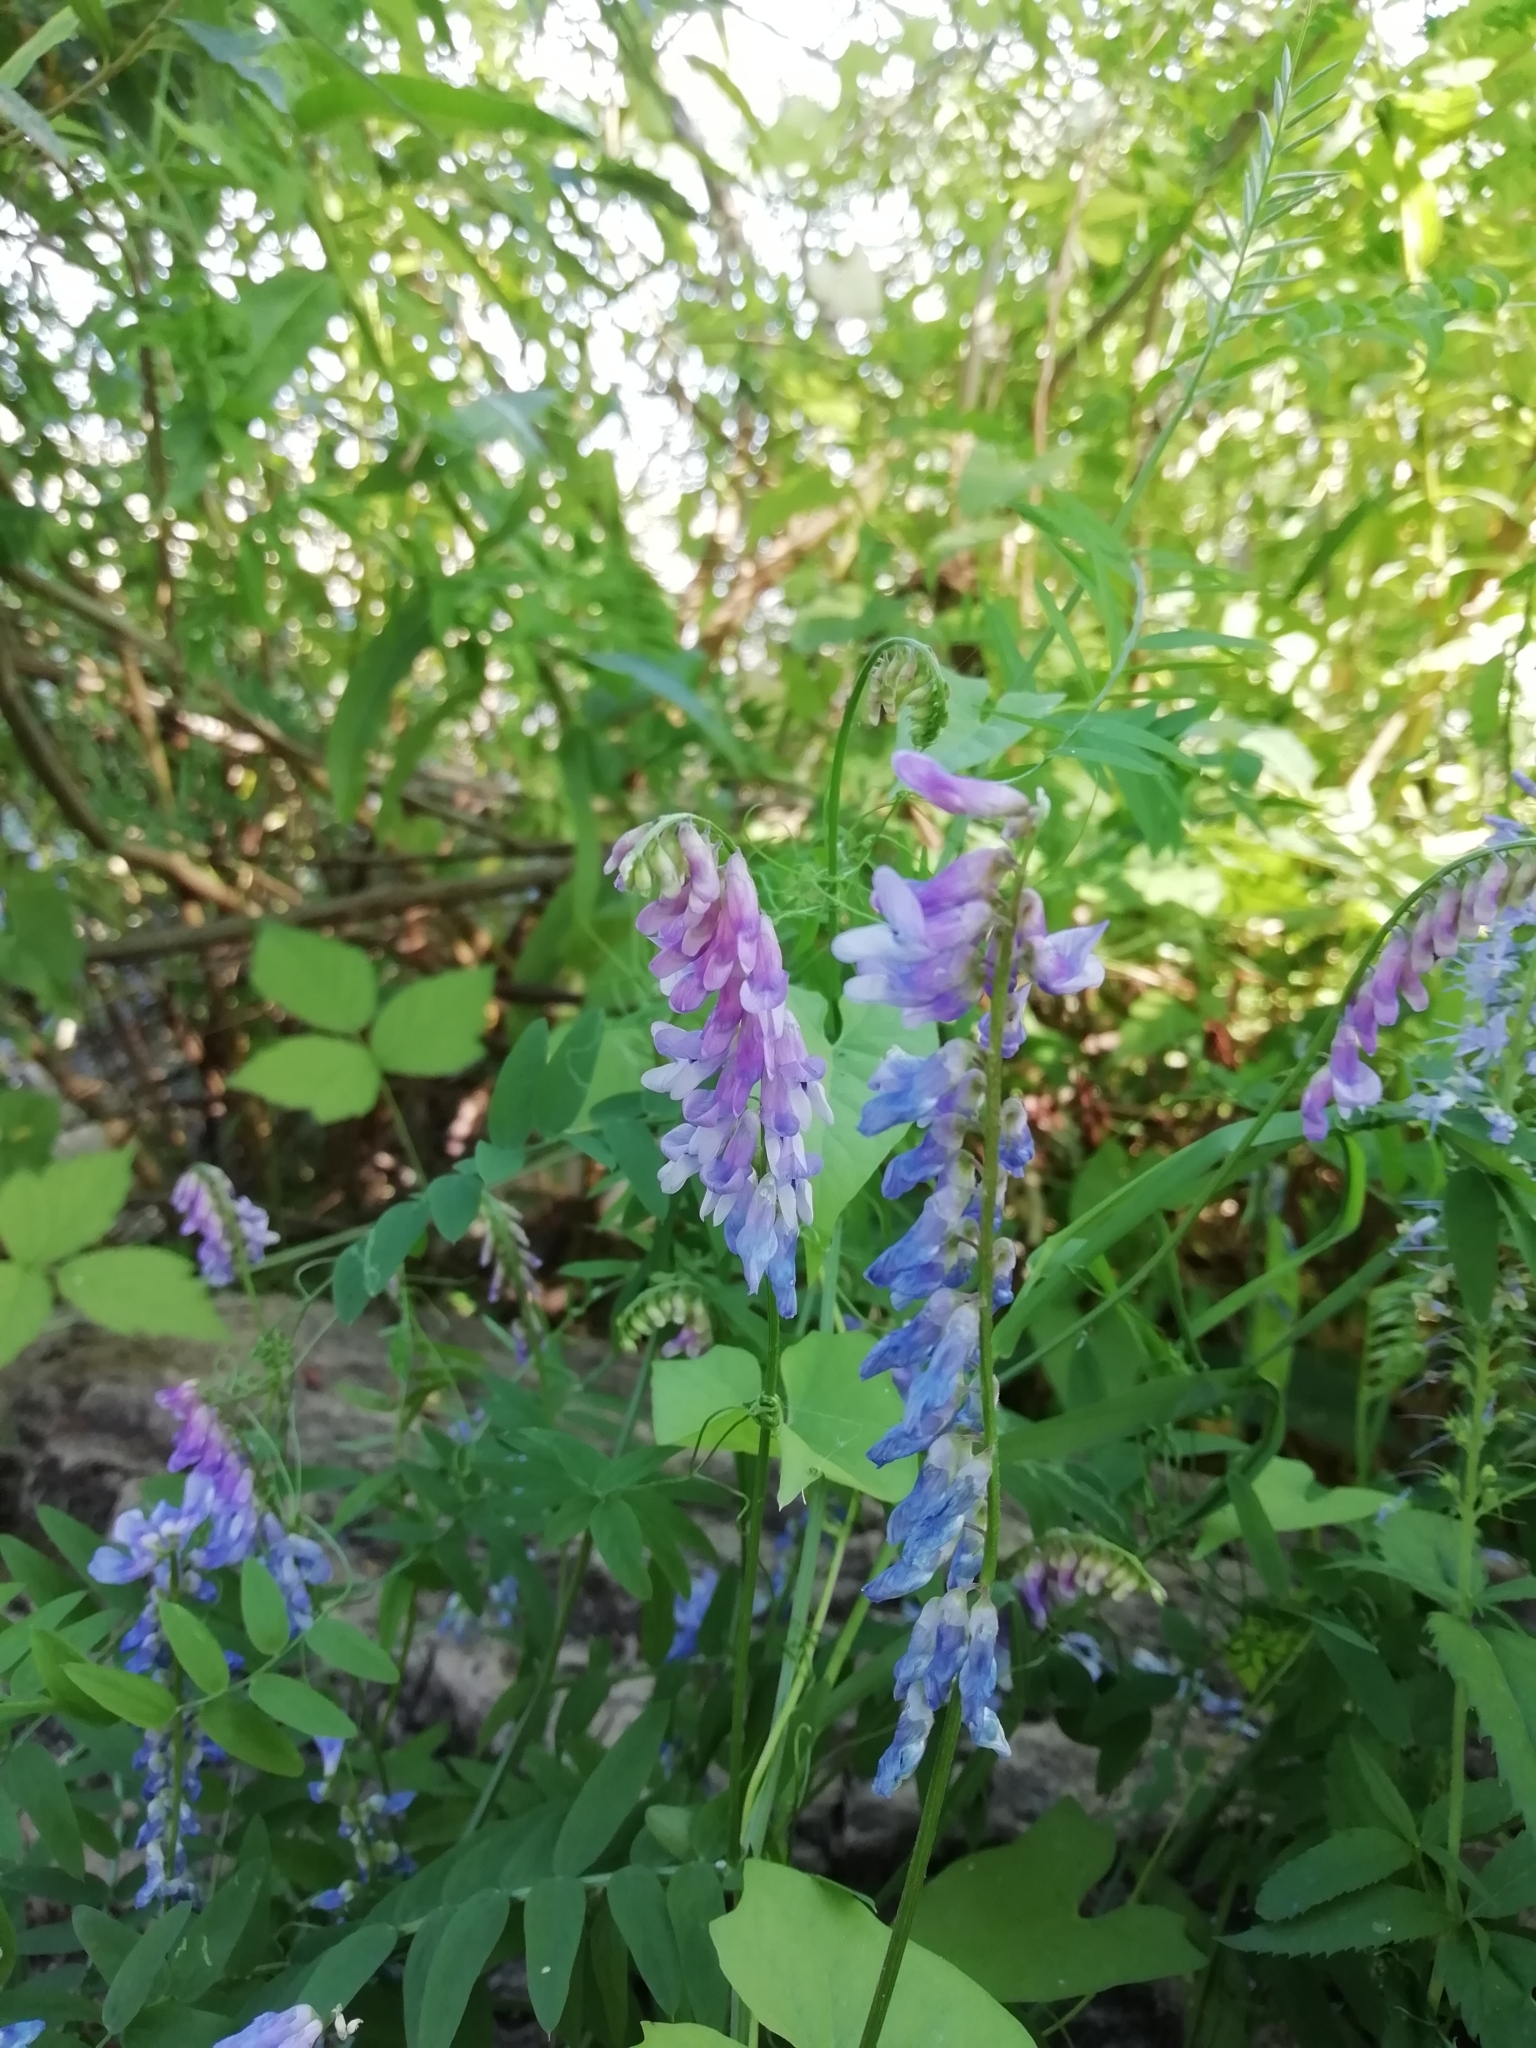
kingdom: Plantae
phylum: Tracheophyta
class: Magnoliopsida
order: Fabales
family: Fabaceae
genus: Vicia
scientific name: Vicia cracca
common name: Bird vetch
